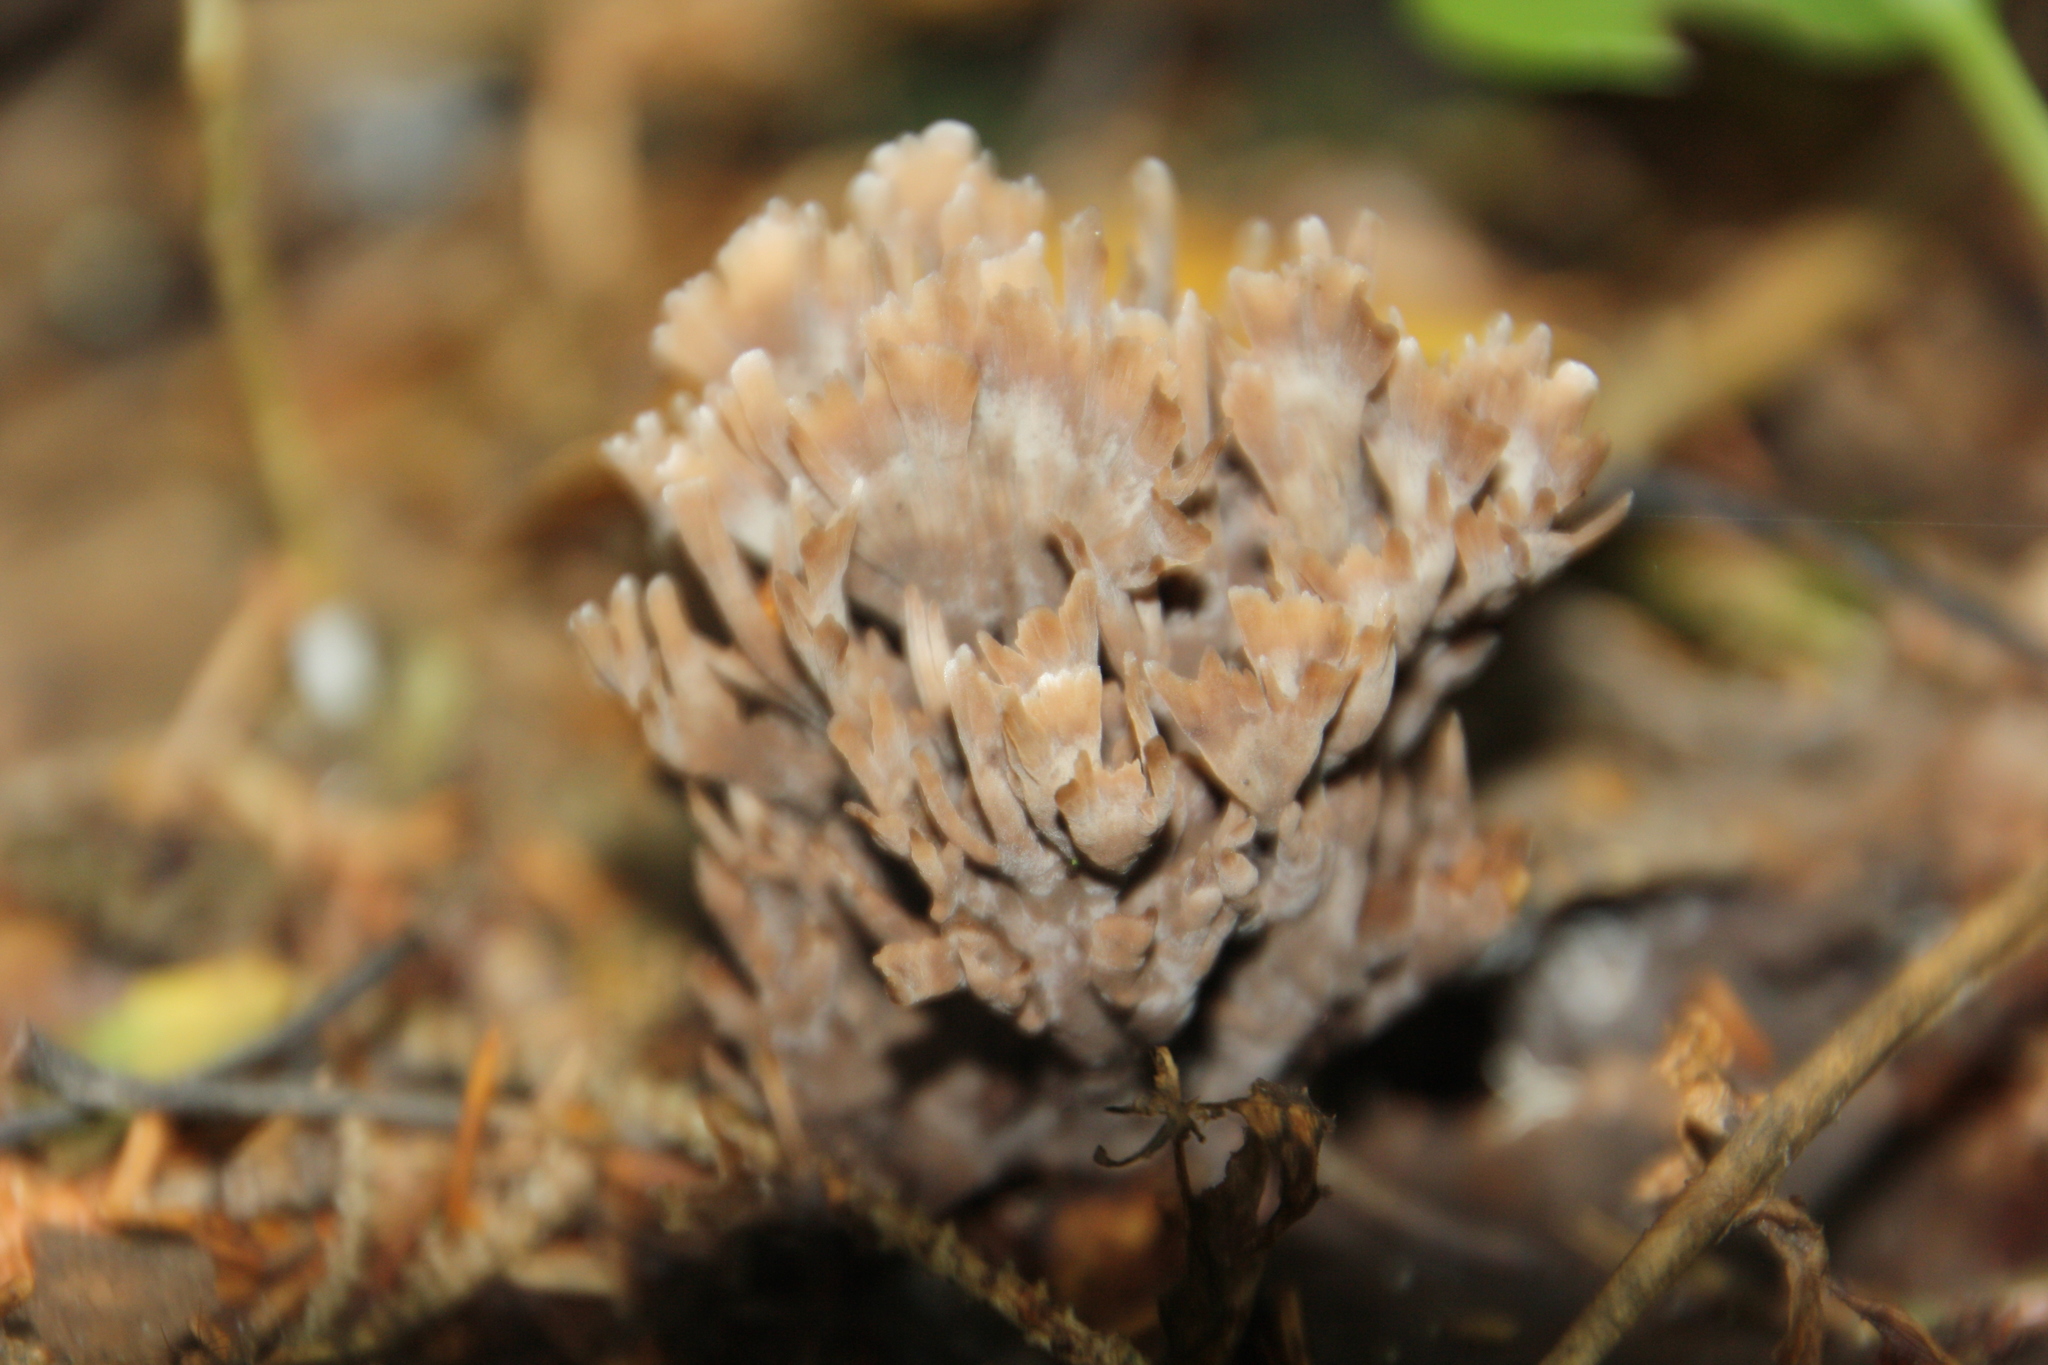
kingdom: Fungi
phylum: Basidiomycota
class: Agaricomycetes
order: Thelephorales
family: Thelephoraceae
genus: Thelephora
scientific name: Thelephora palmata
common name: Stinking earthfan
